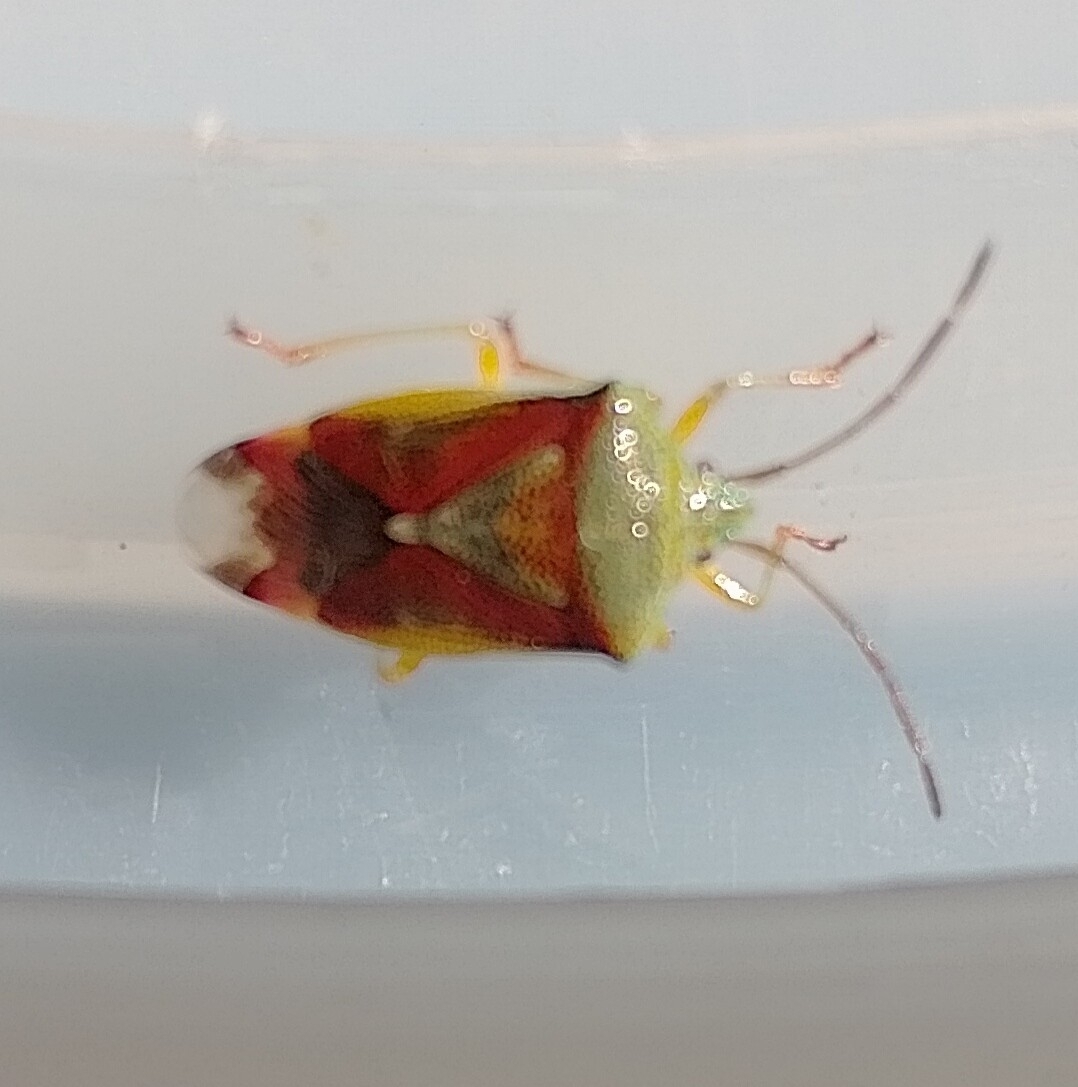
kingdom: Animalia
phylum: Arthropoda
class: Insecta
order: Hemiptera
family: Acanthosomatidae
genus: Elasmostethus
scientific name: Elasmostethus interstinctus
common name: Birch shieldbug
